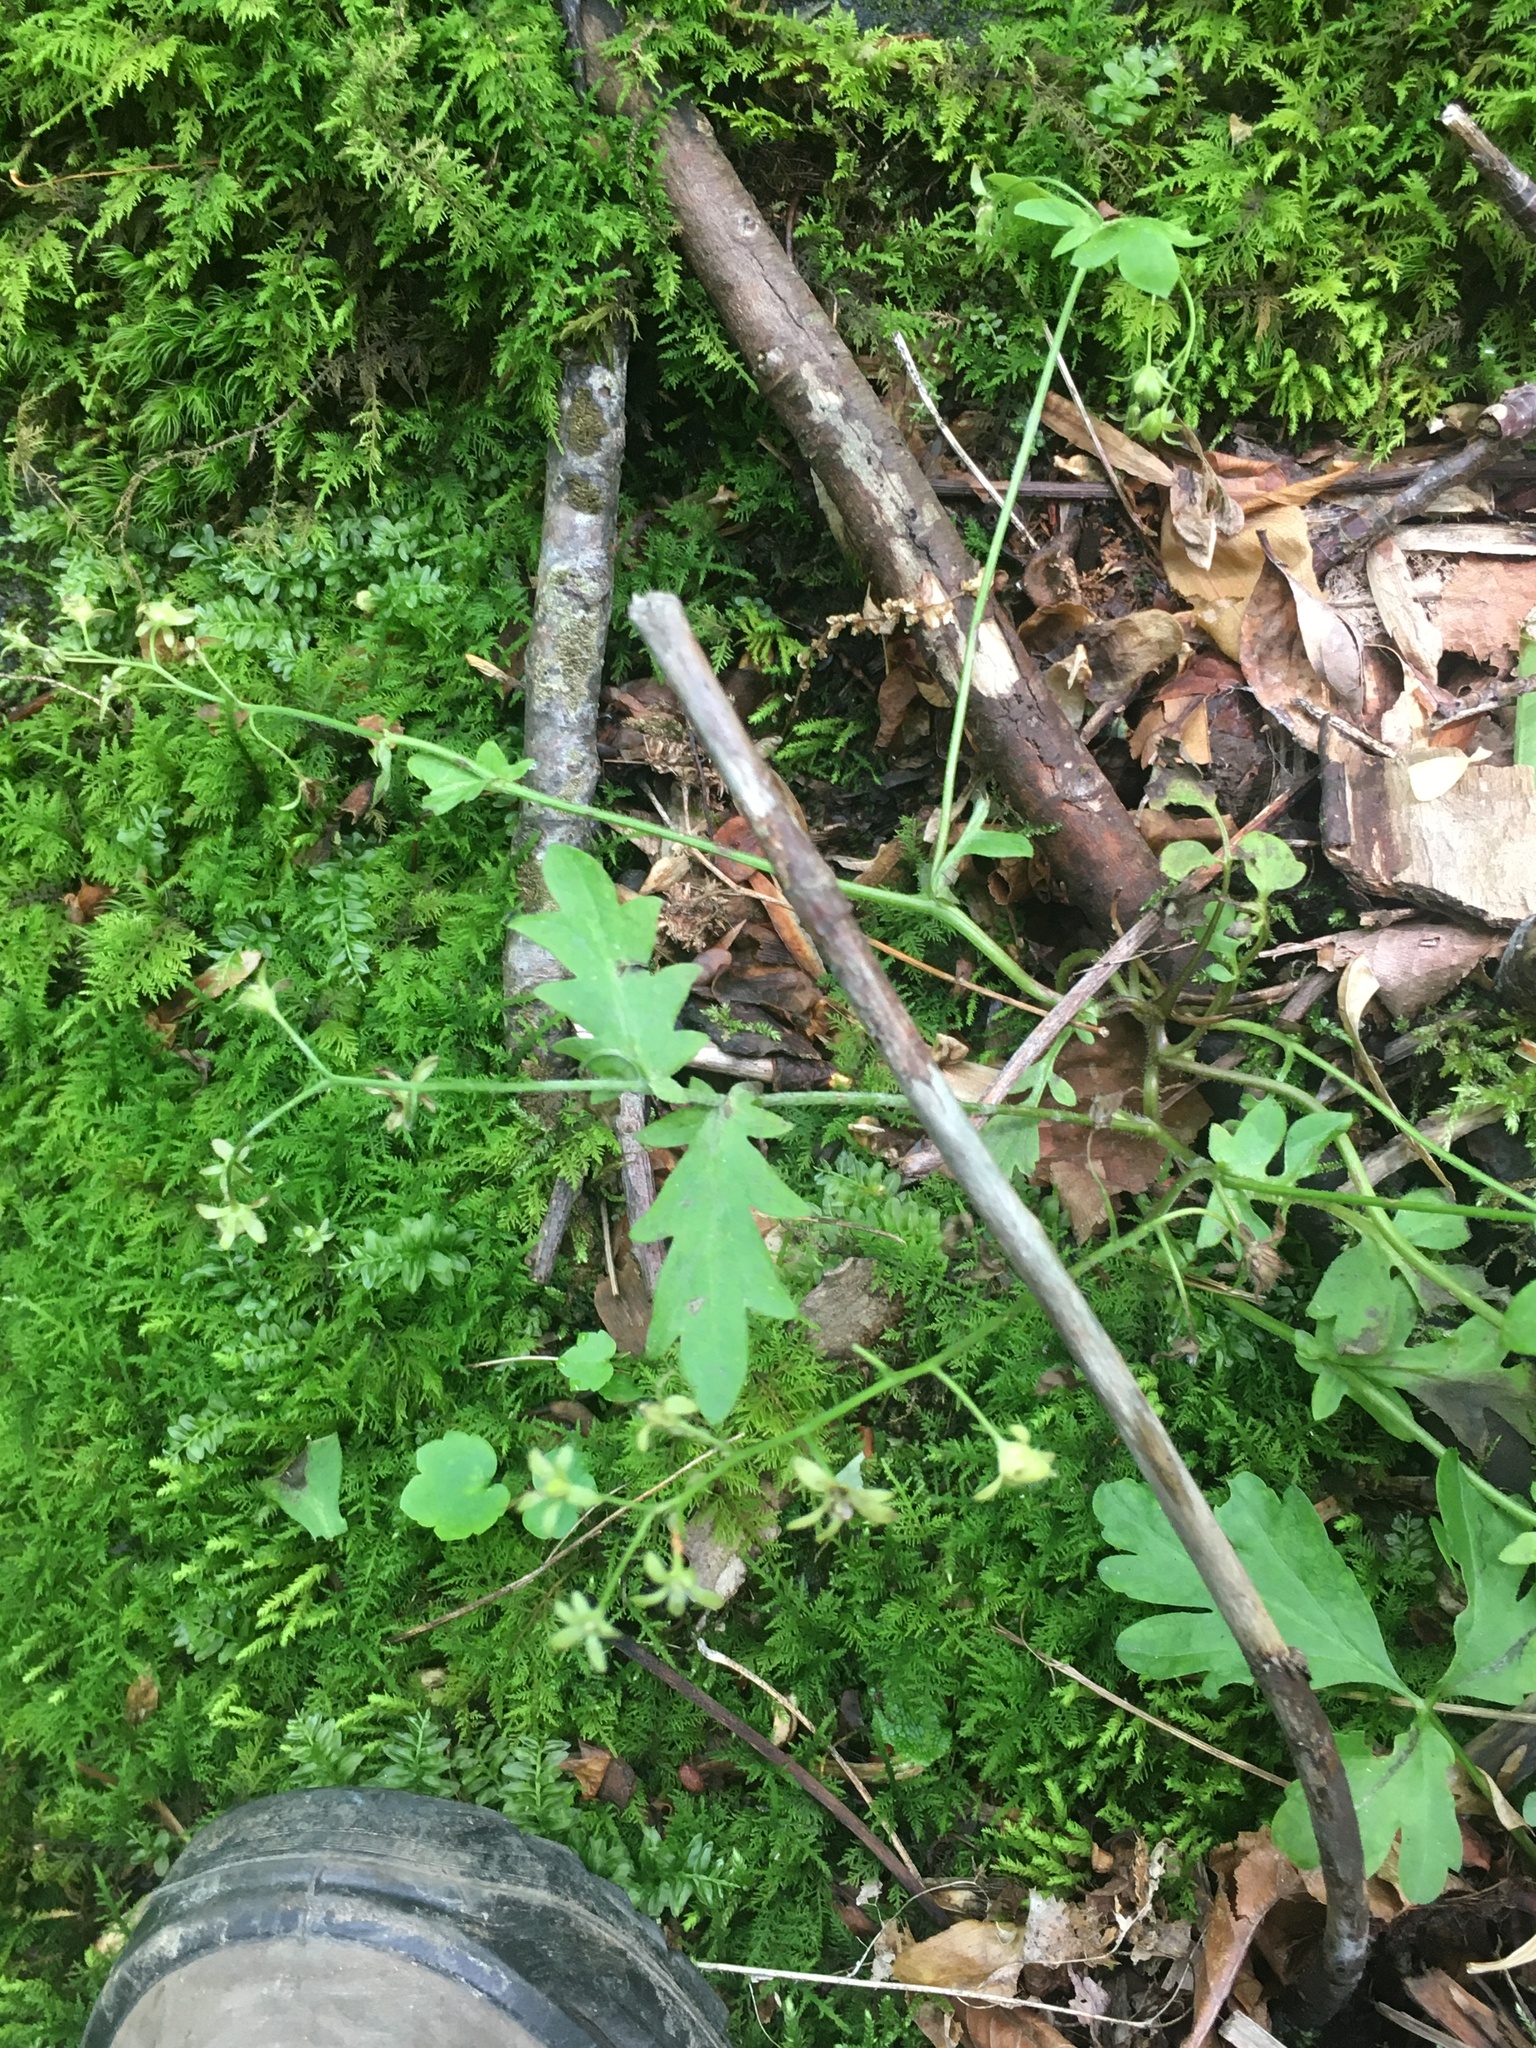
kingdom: Plantae
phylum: Tracheophyta
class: Magnoliopsida
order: Boraginales
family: Hydrophyllaceae
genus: Phacelia
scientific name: Phacelia fimbriata
